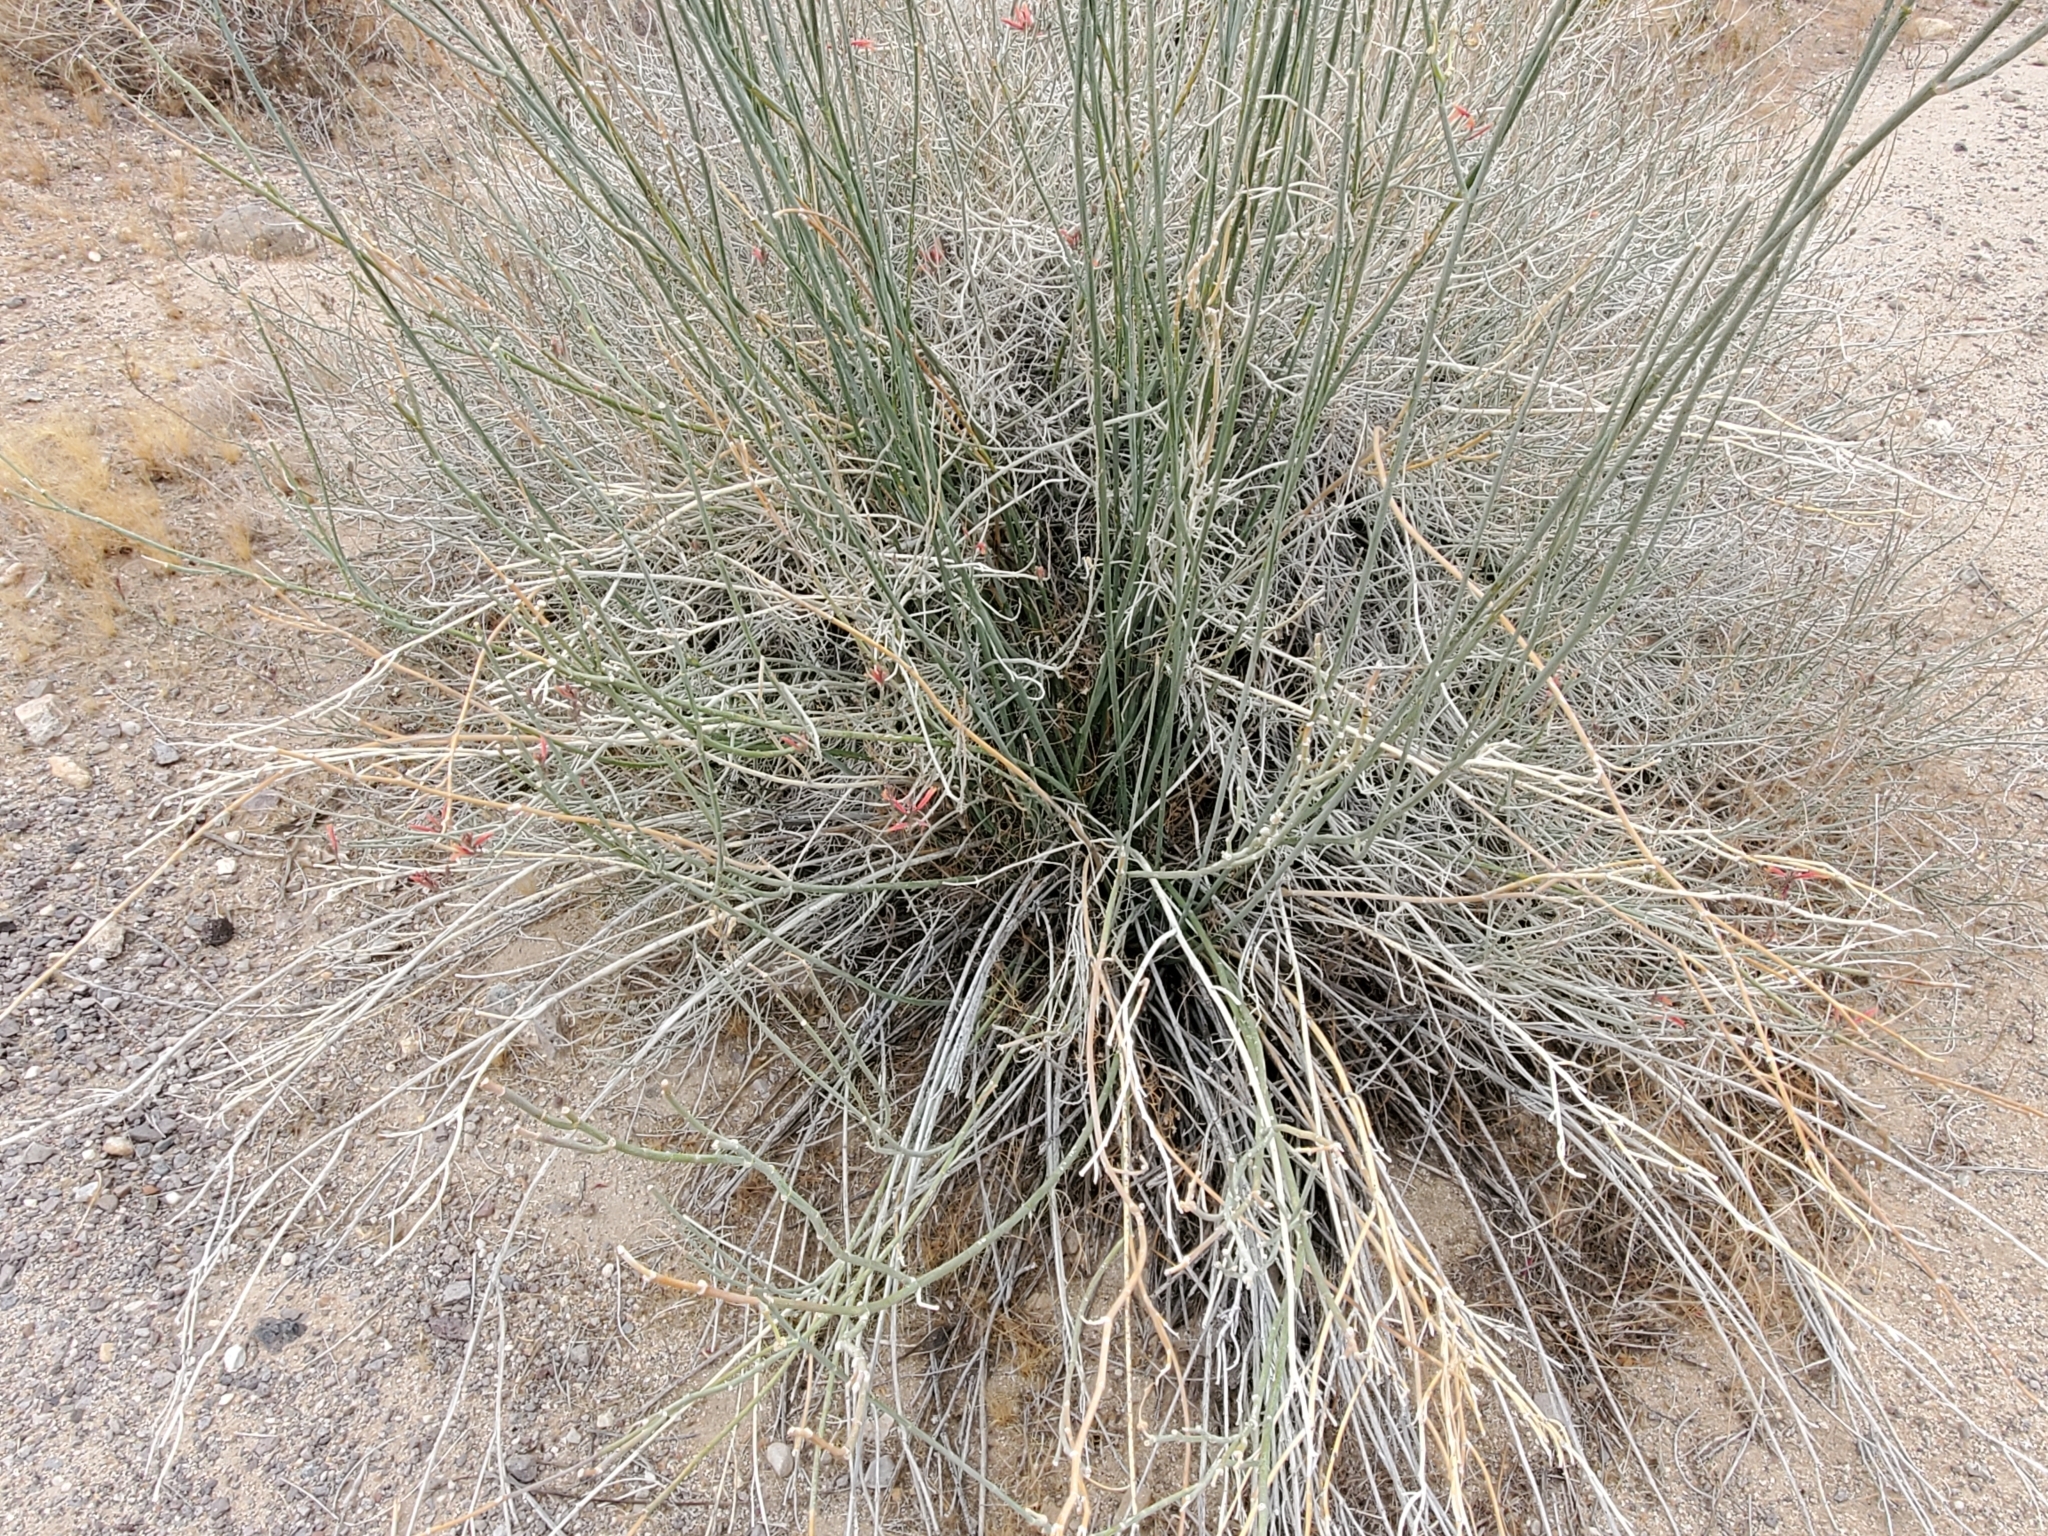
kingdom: Plantae
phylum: Tracheophyta
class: Magnoliopsida
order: Gentianales
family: Apocynaceae
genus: Asclepias
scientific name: Asclepias subulata
